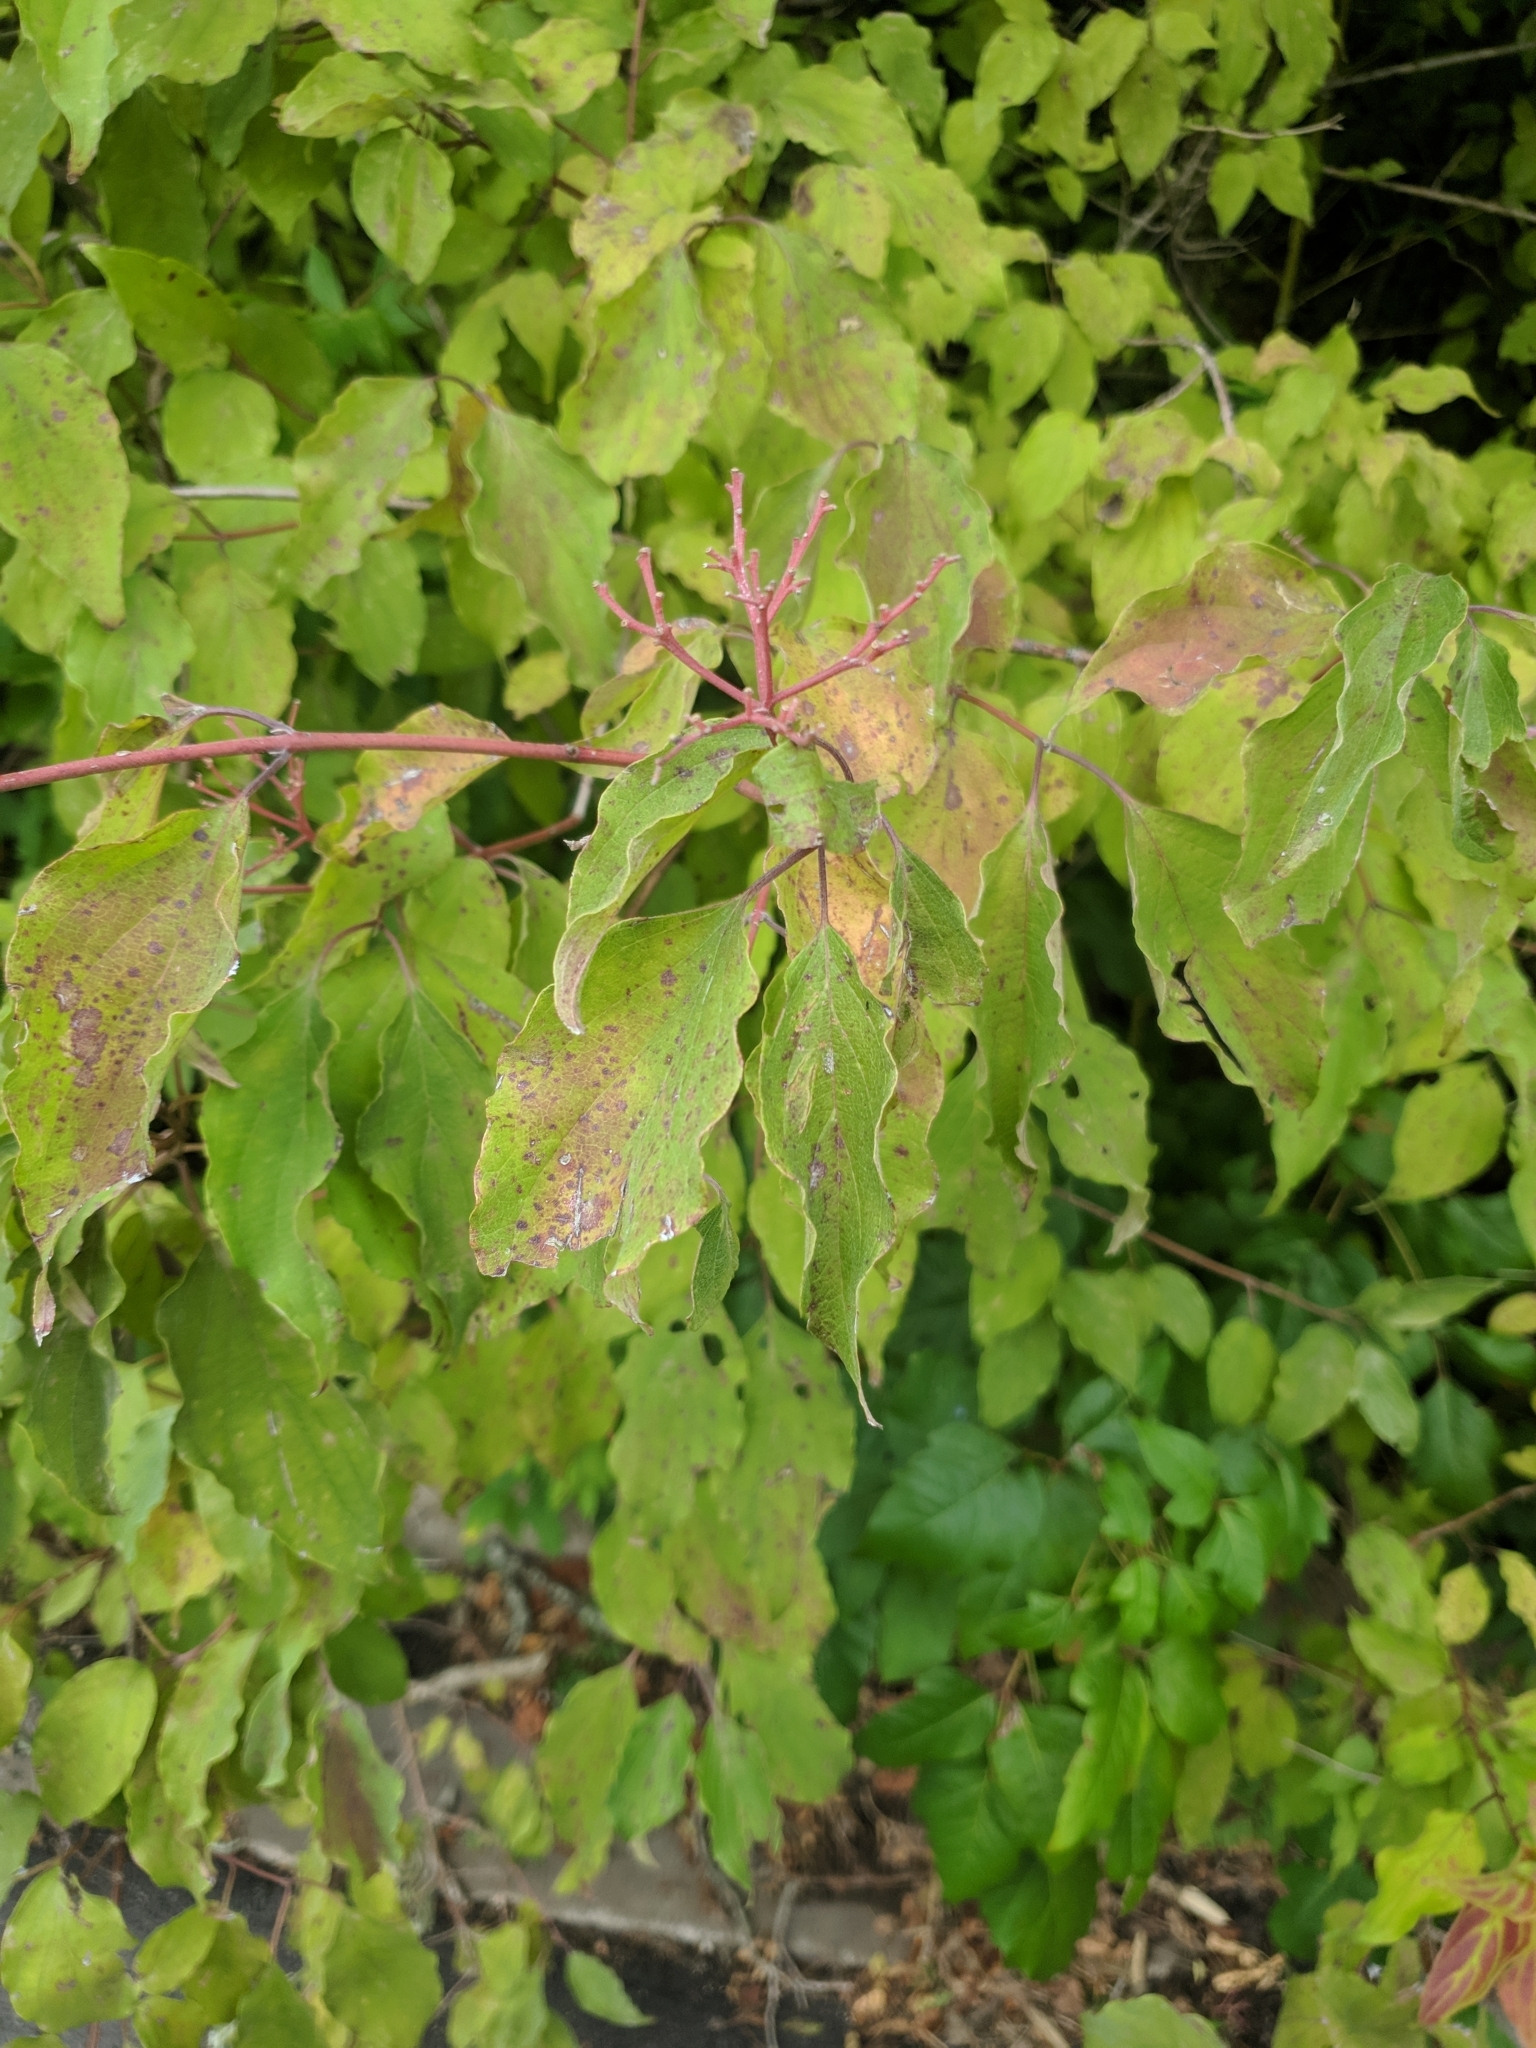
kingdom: Plantae
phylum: Tracheophyta
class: Magnoliopsida
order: Cornales
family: Cornaceae
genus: Cornus
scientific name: Cornus drummondii
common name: Rough-leaf dogwood
